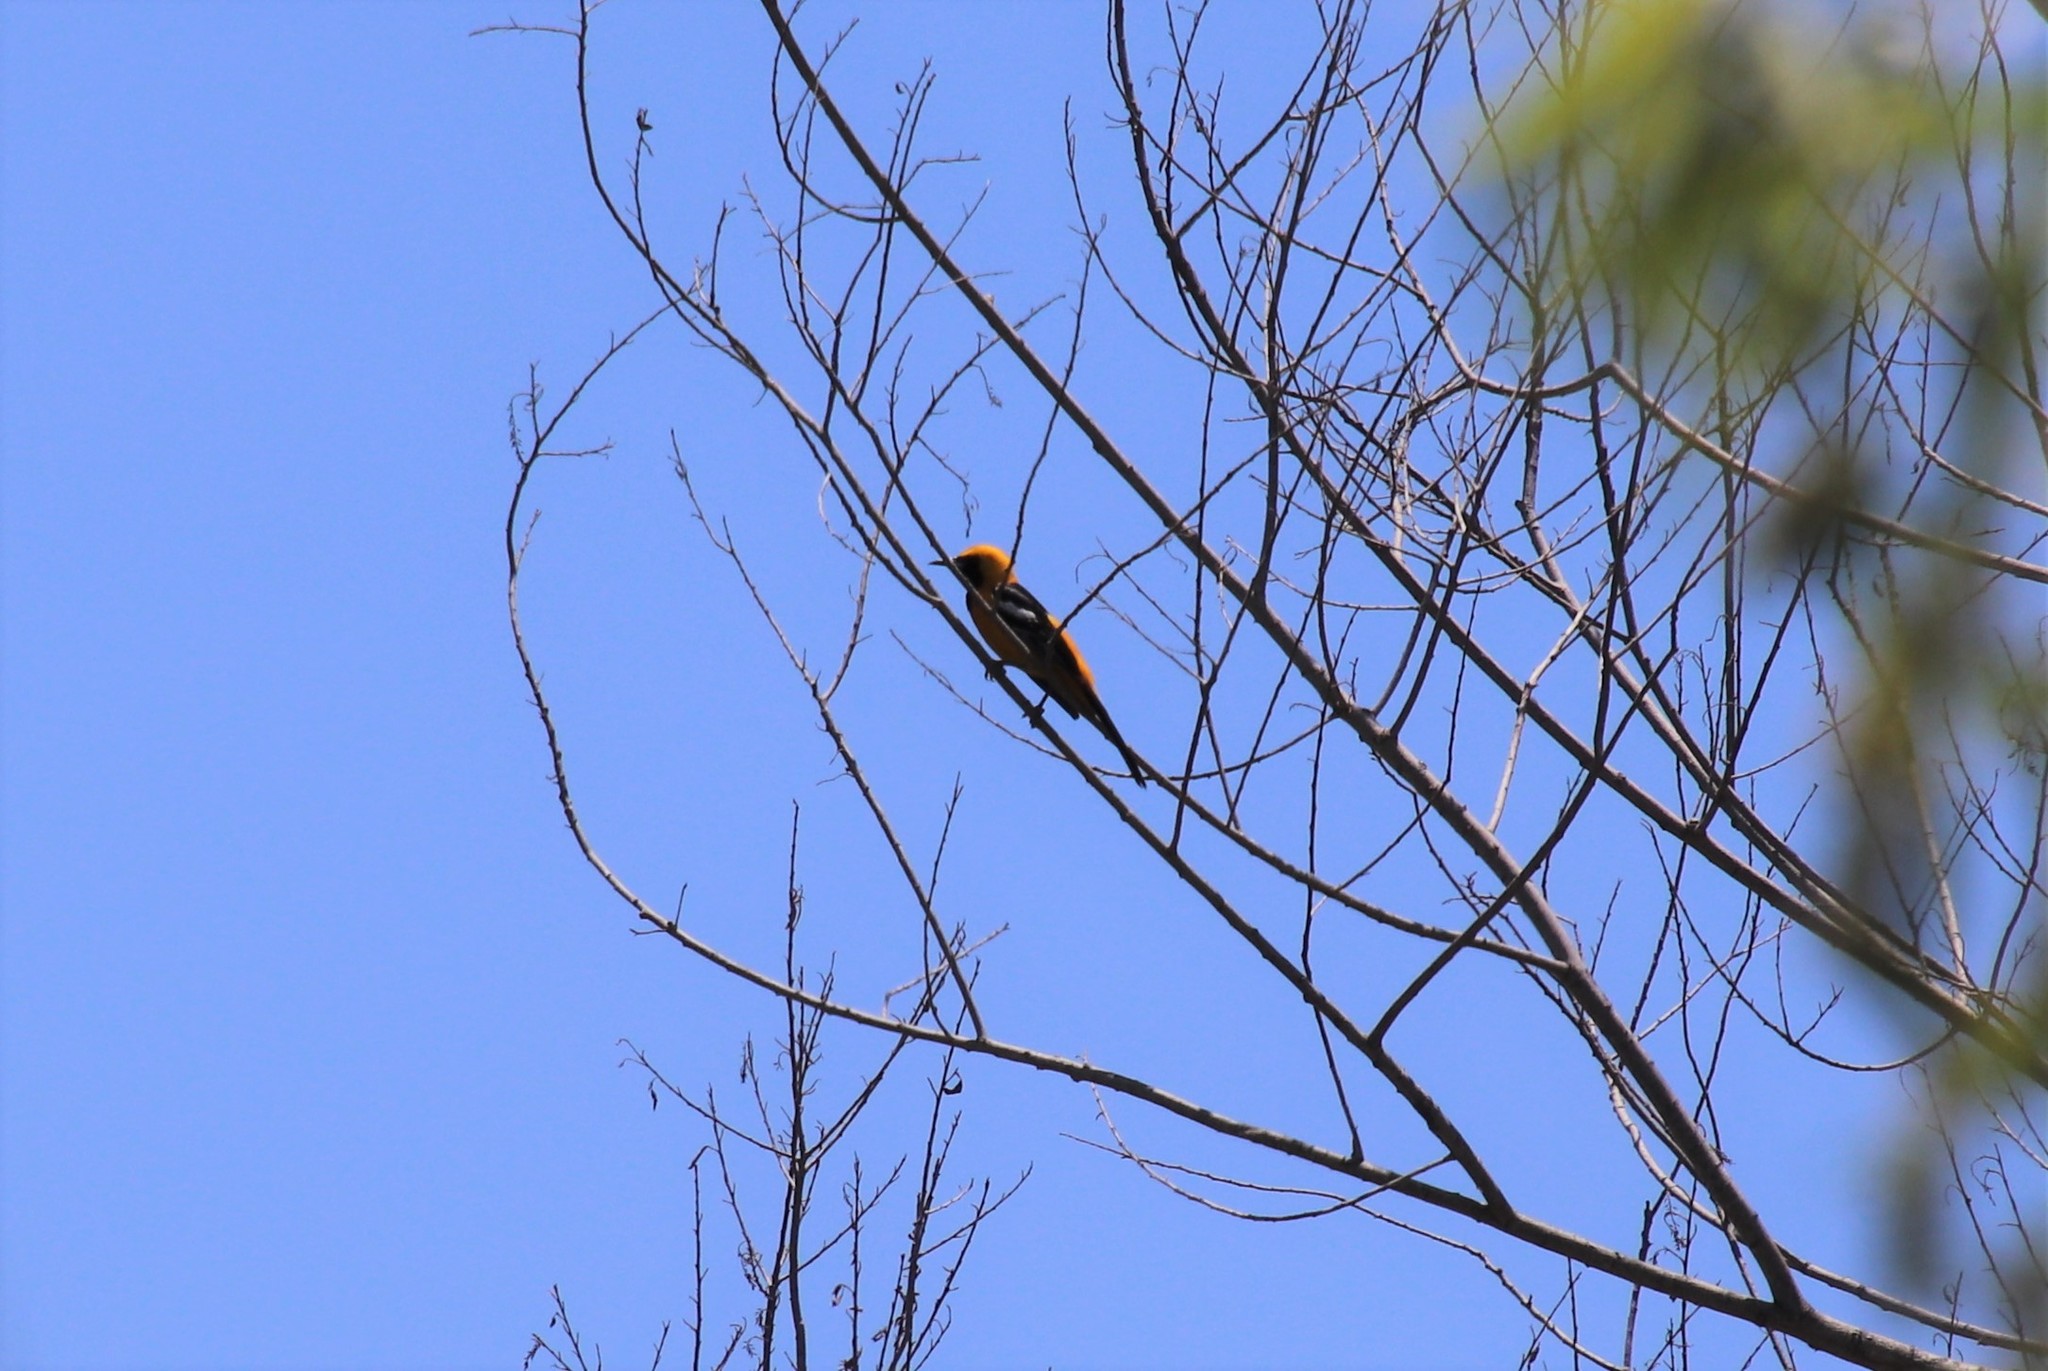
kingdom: Animalia
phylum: Chordata
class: Aves
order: Passeriformes
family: Icteridae
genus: Icterus
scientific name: Icterus cucullatus
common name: Hooded oriole
